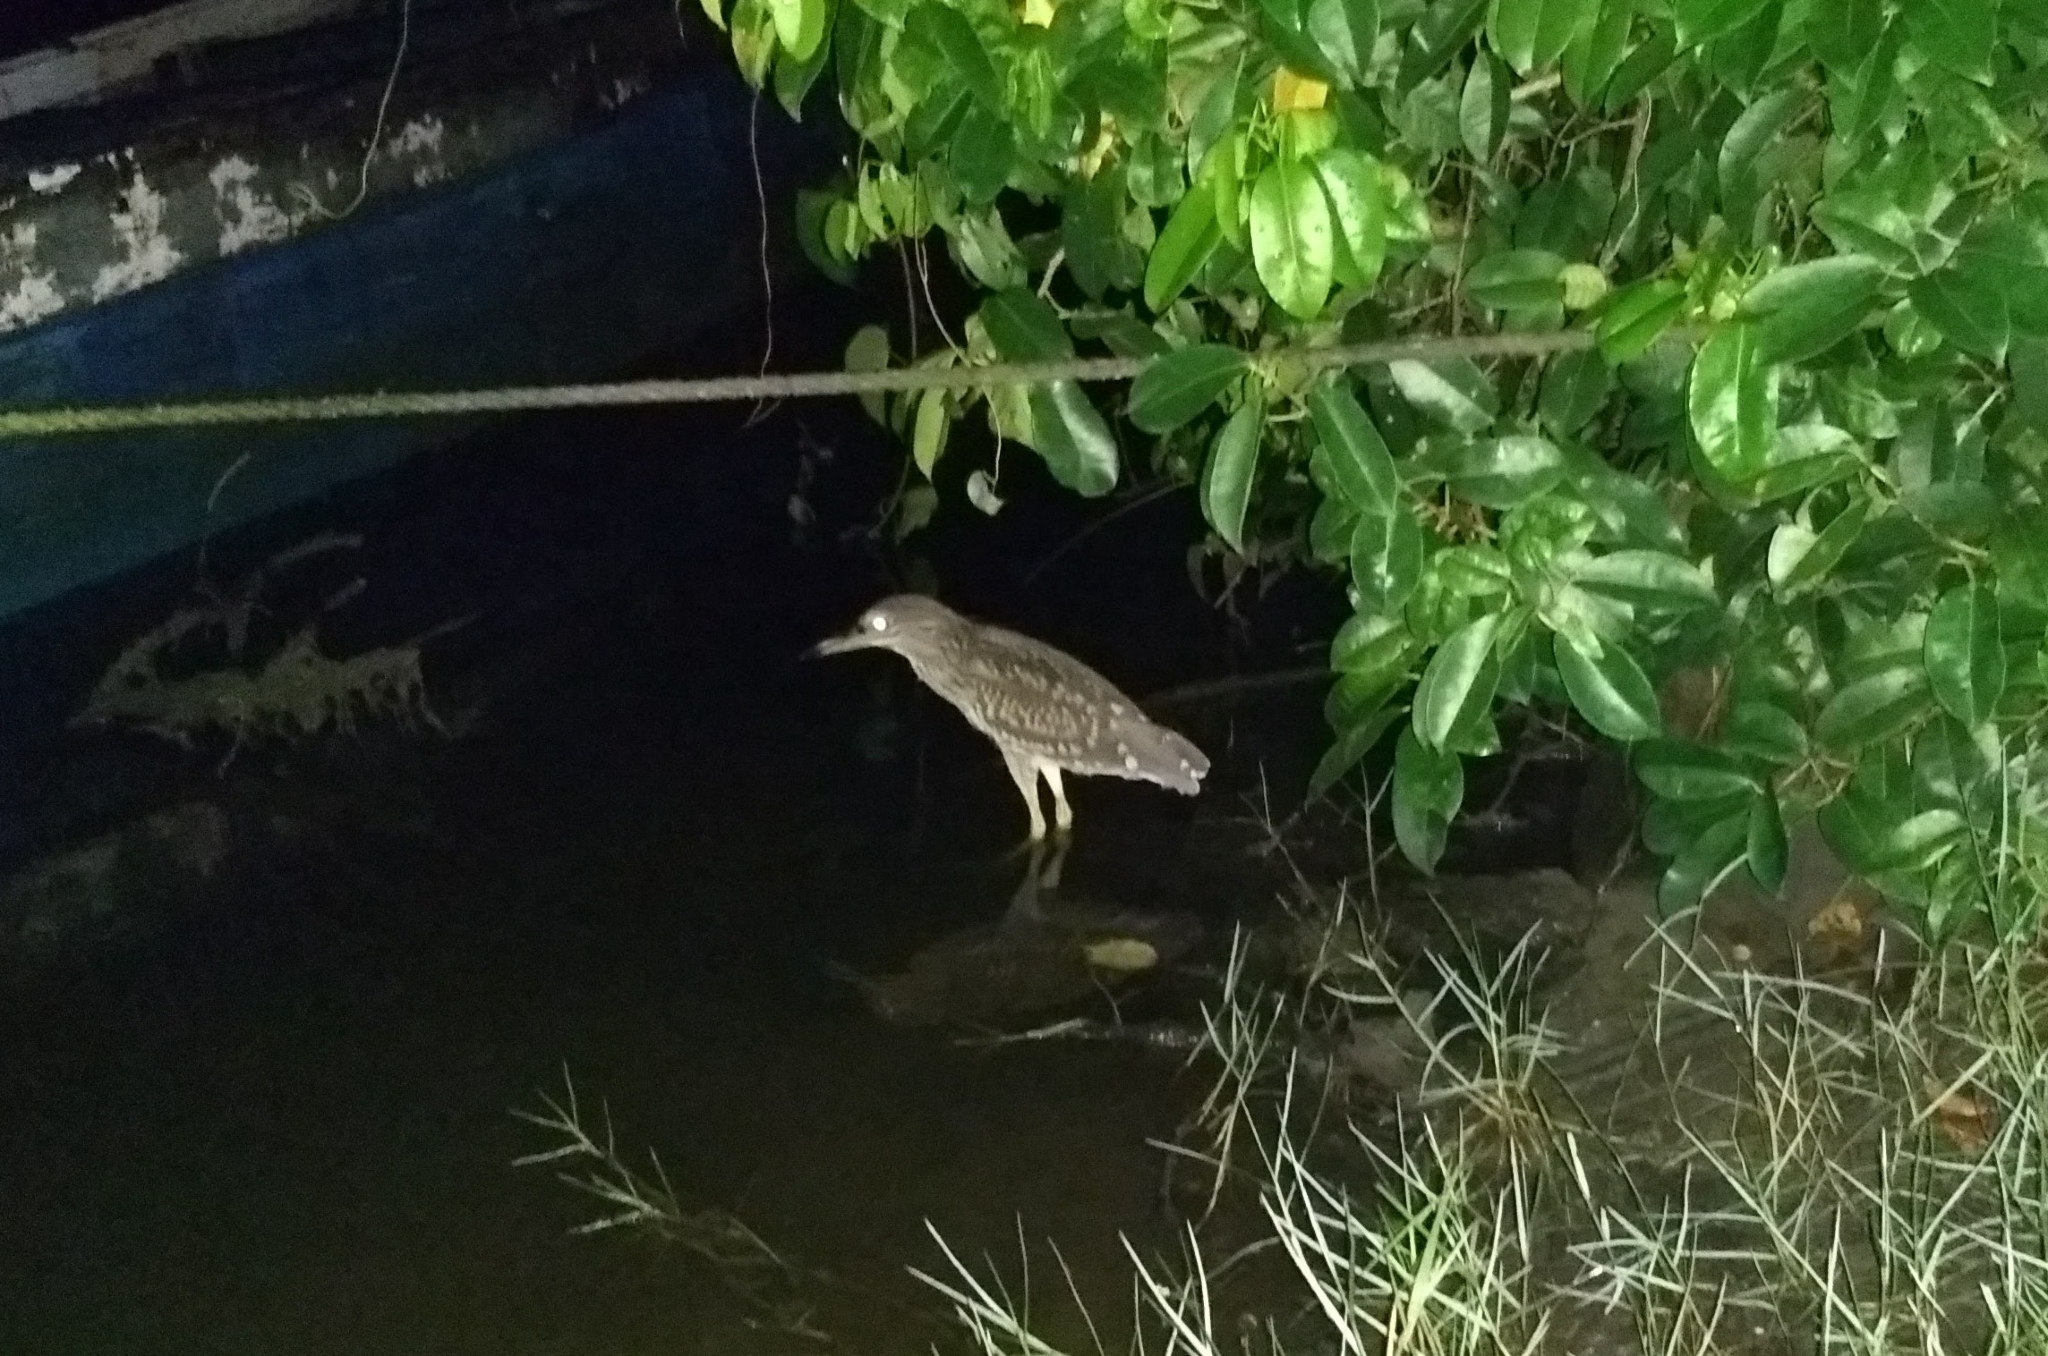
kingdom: Animalia
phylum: Chordata
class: Aves
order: Pelecaniformes
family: Ardeidae
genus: Nycticorax
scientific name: Nycticorax nycticorax
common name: Black-crowned night heron
